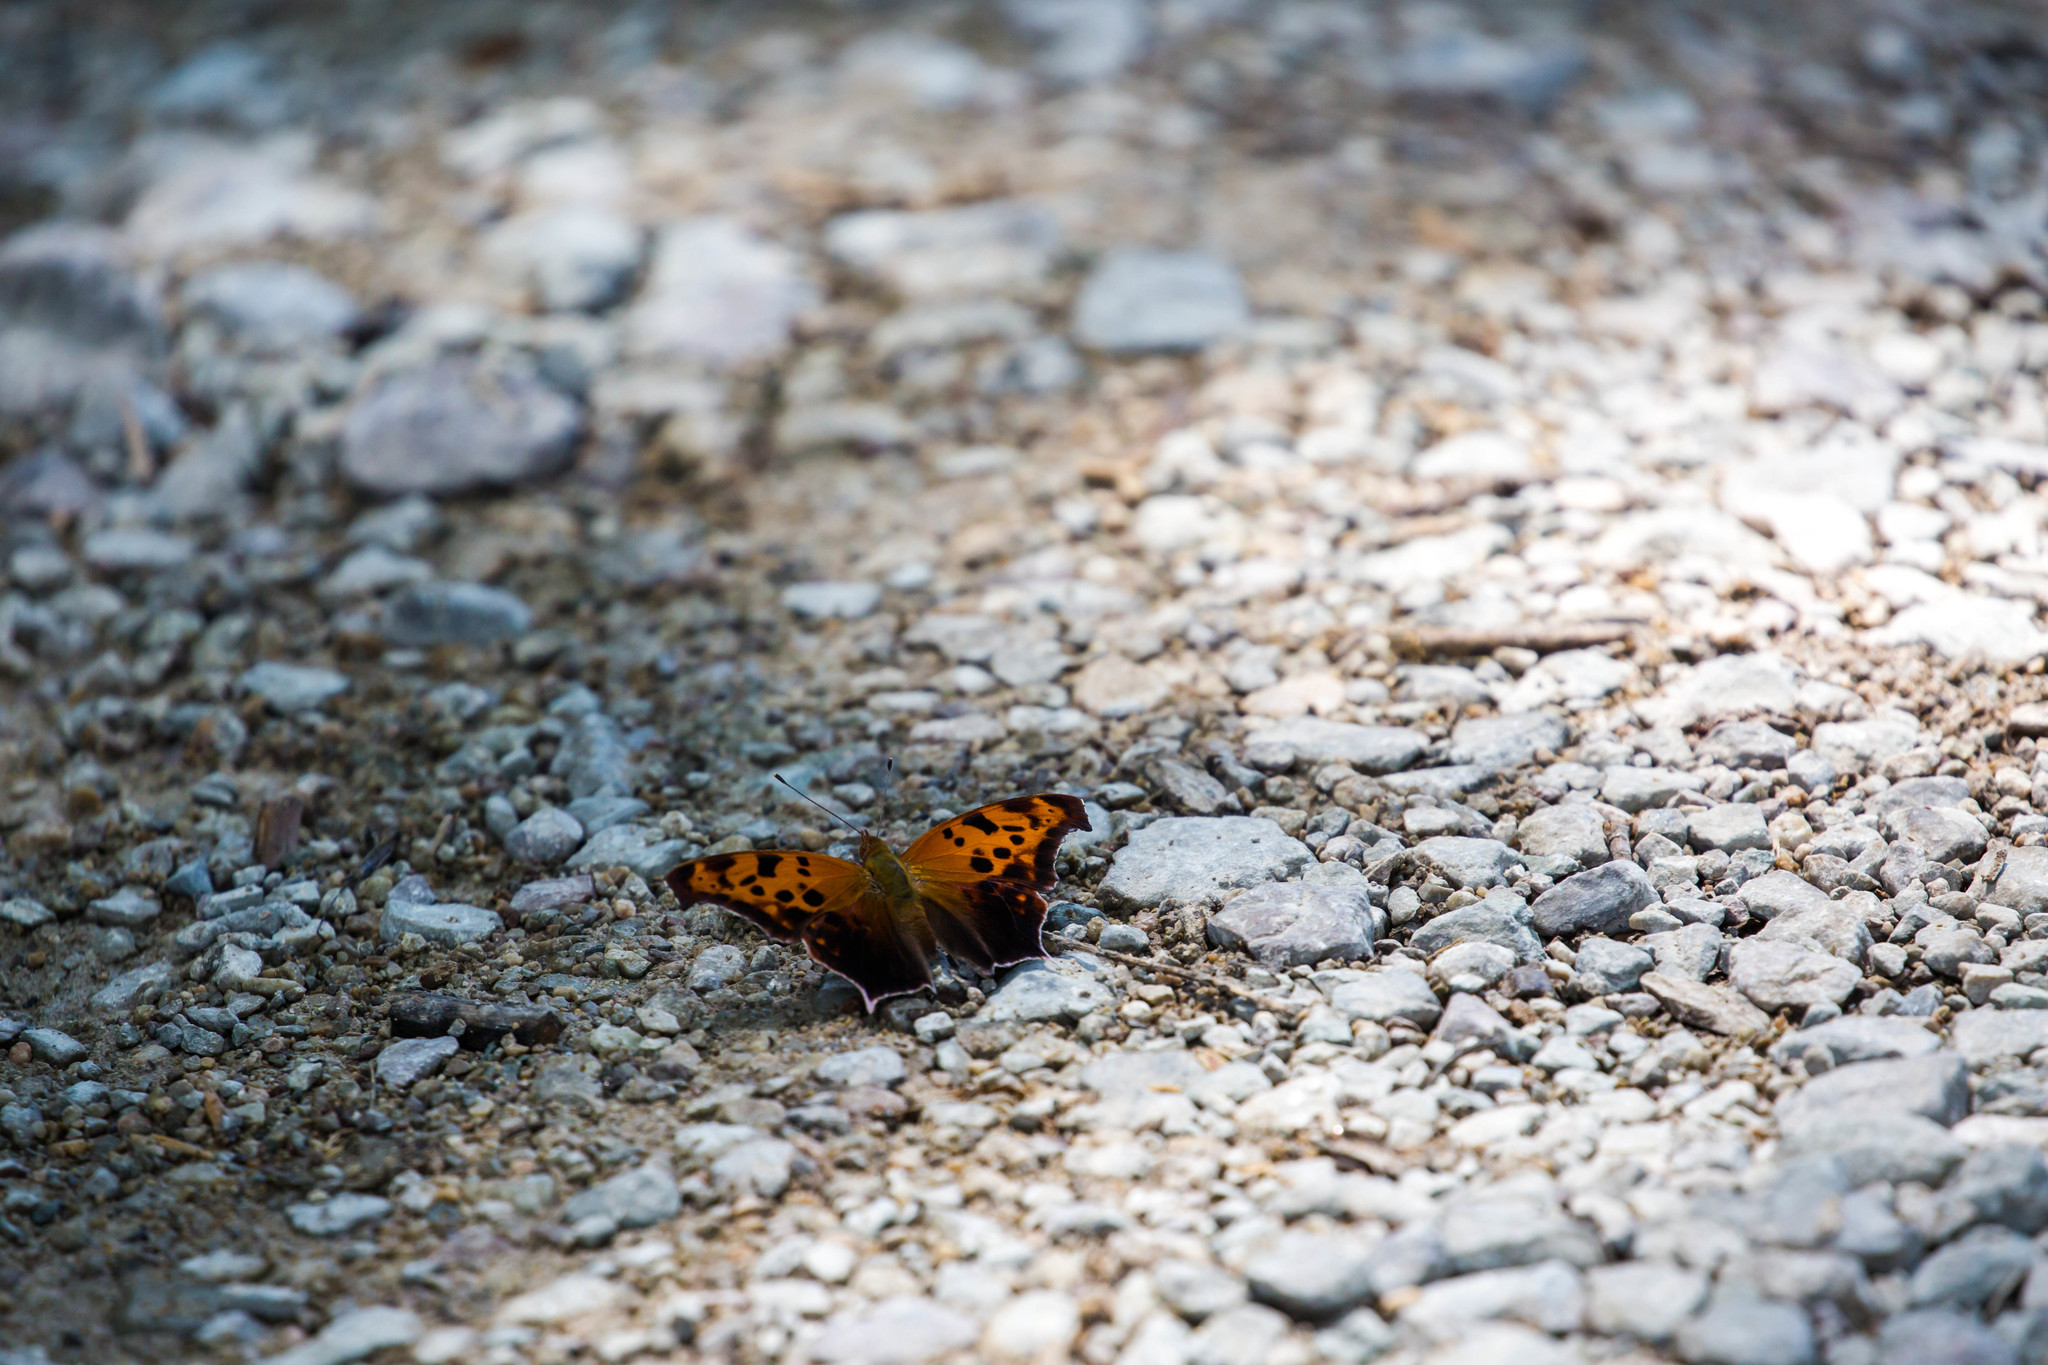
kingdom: Animalia
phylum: Arthropoda
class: Insecta
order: Lepidoptera
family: Nymphalidae
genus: Polygonia
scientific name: Polygonia interrogationis
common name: Question mark
